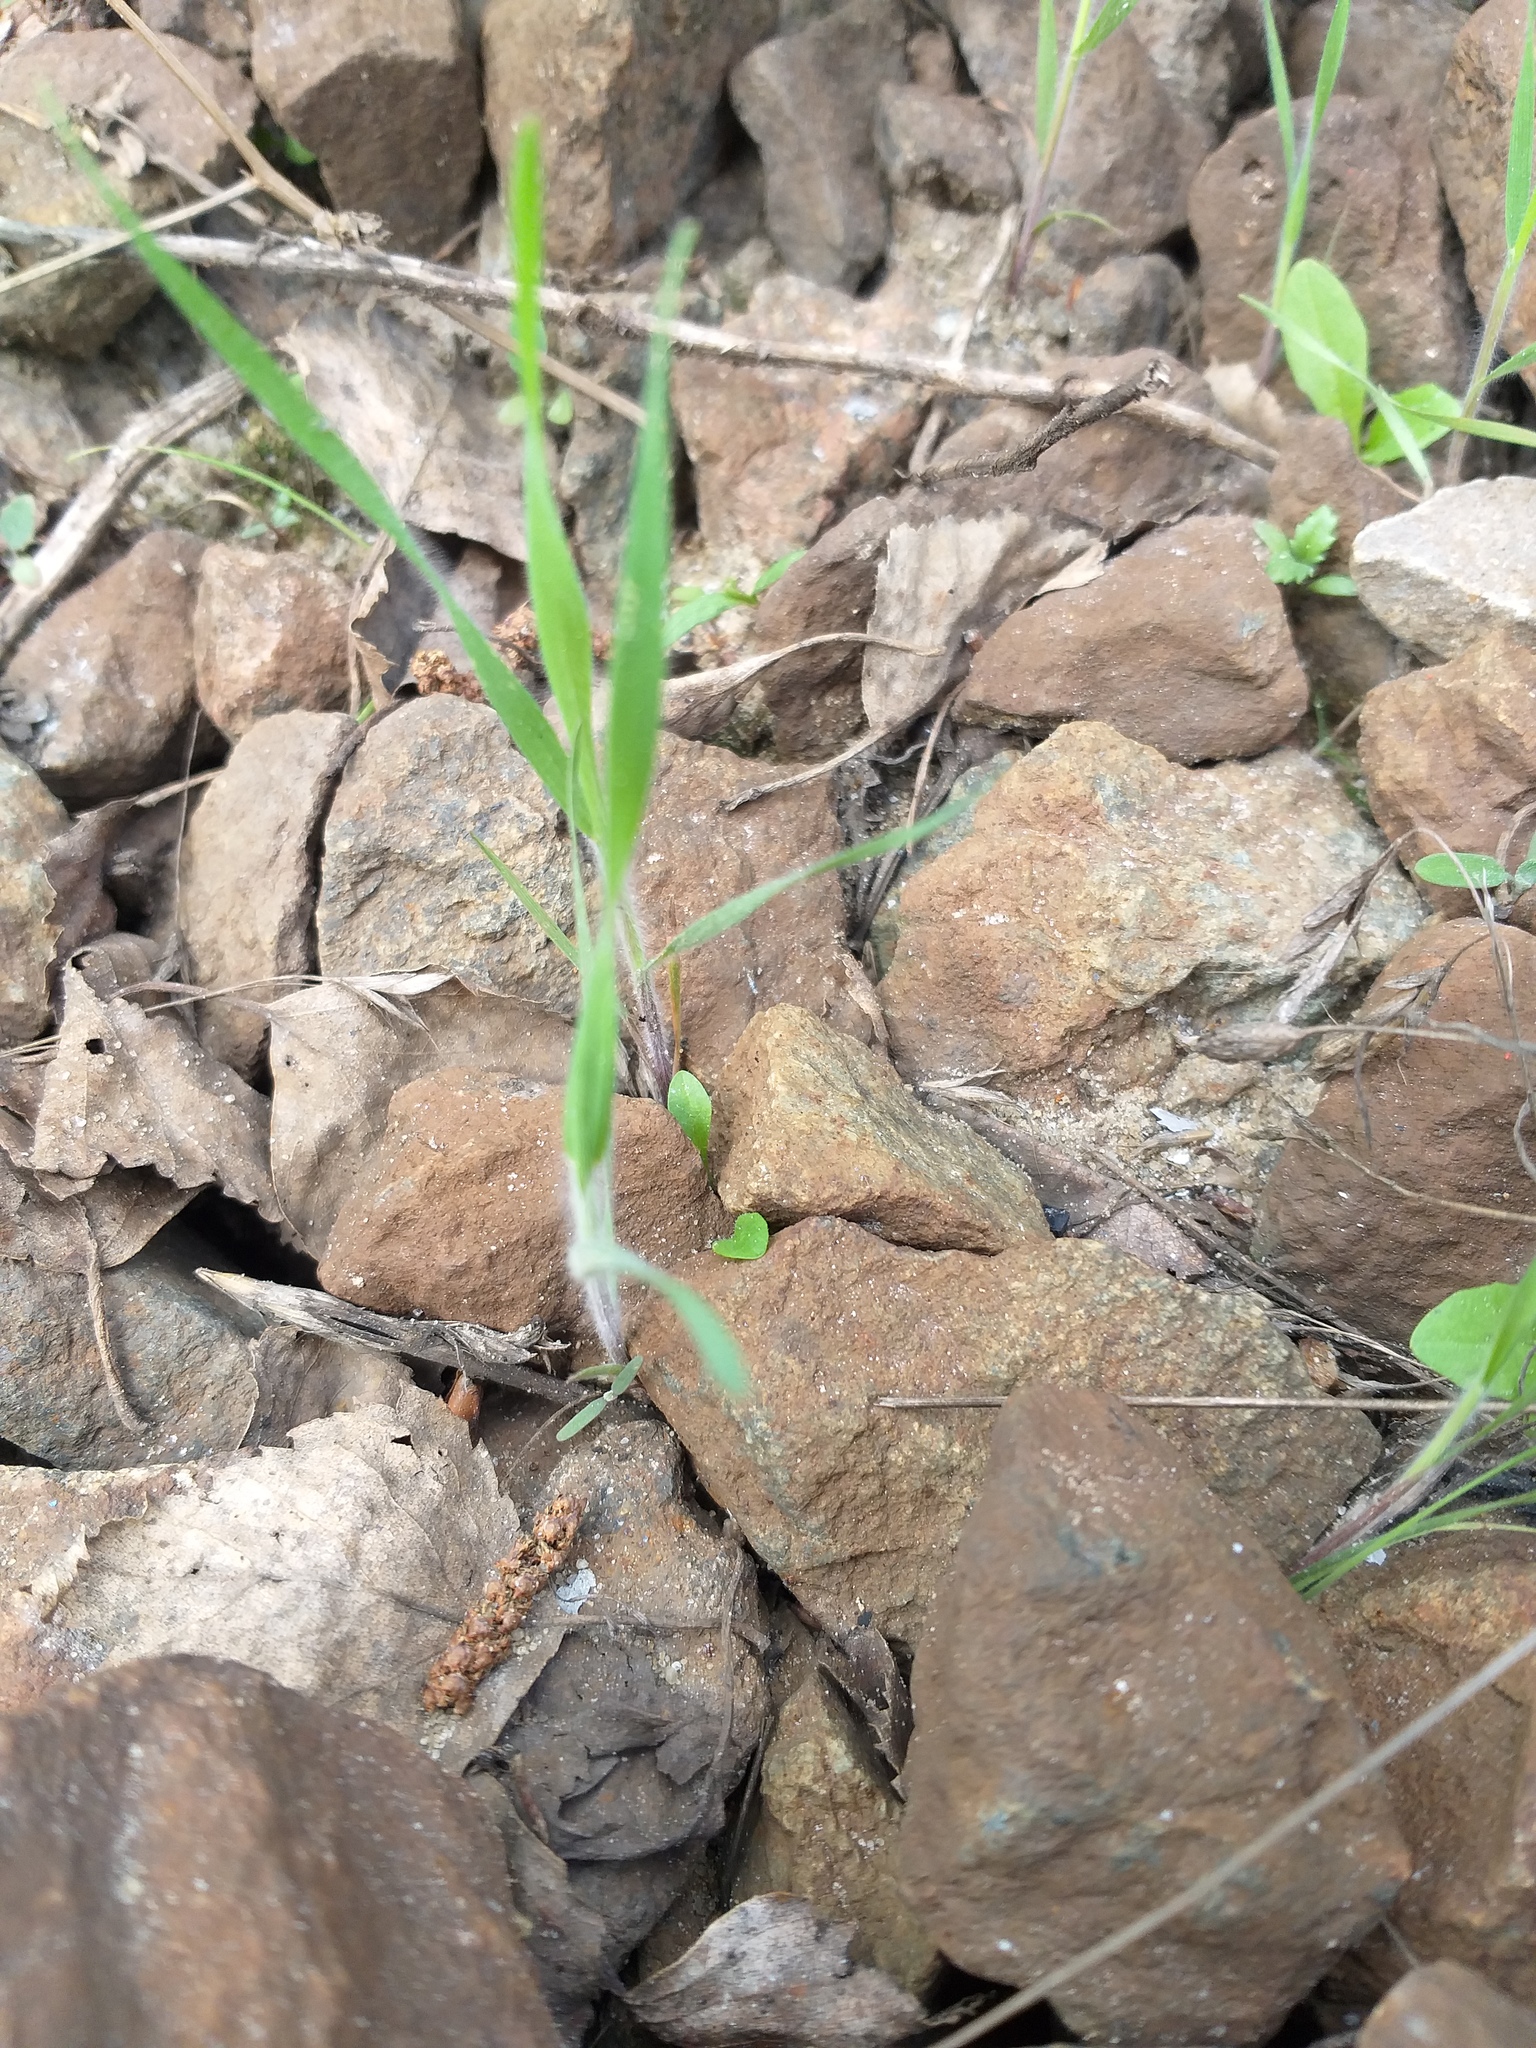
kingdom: Plantae
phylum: Tracheophyta
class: Liliopsida
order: Poales
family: Poaceae
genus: Bromus
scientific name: Bromus tectorum
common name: Cheatgrass
